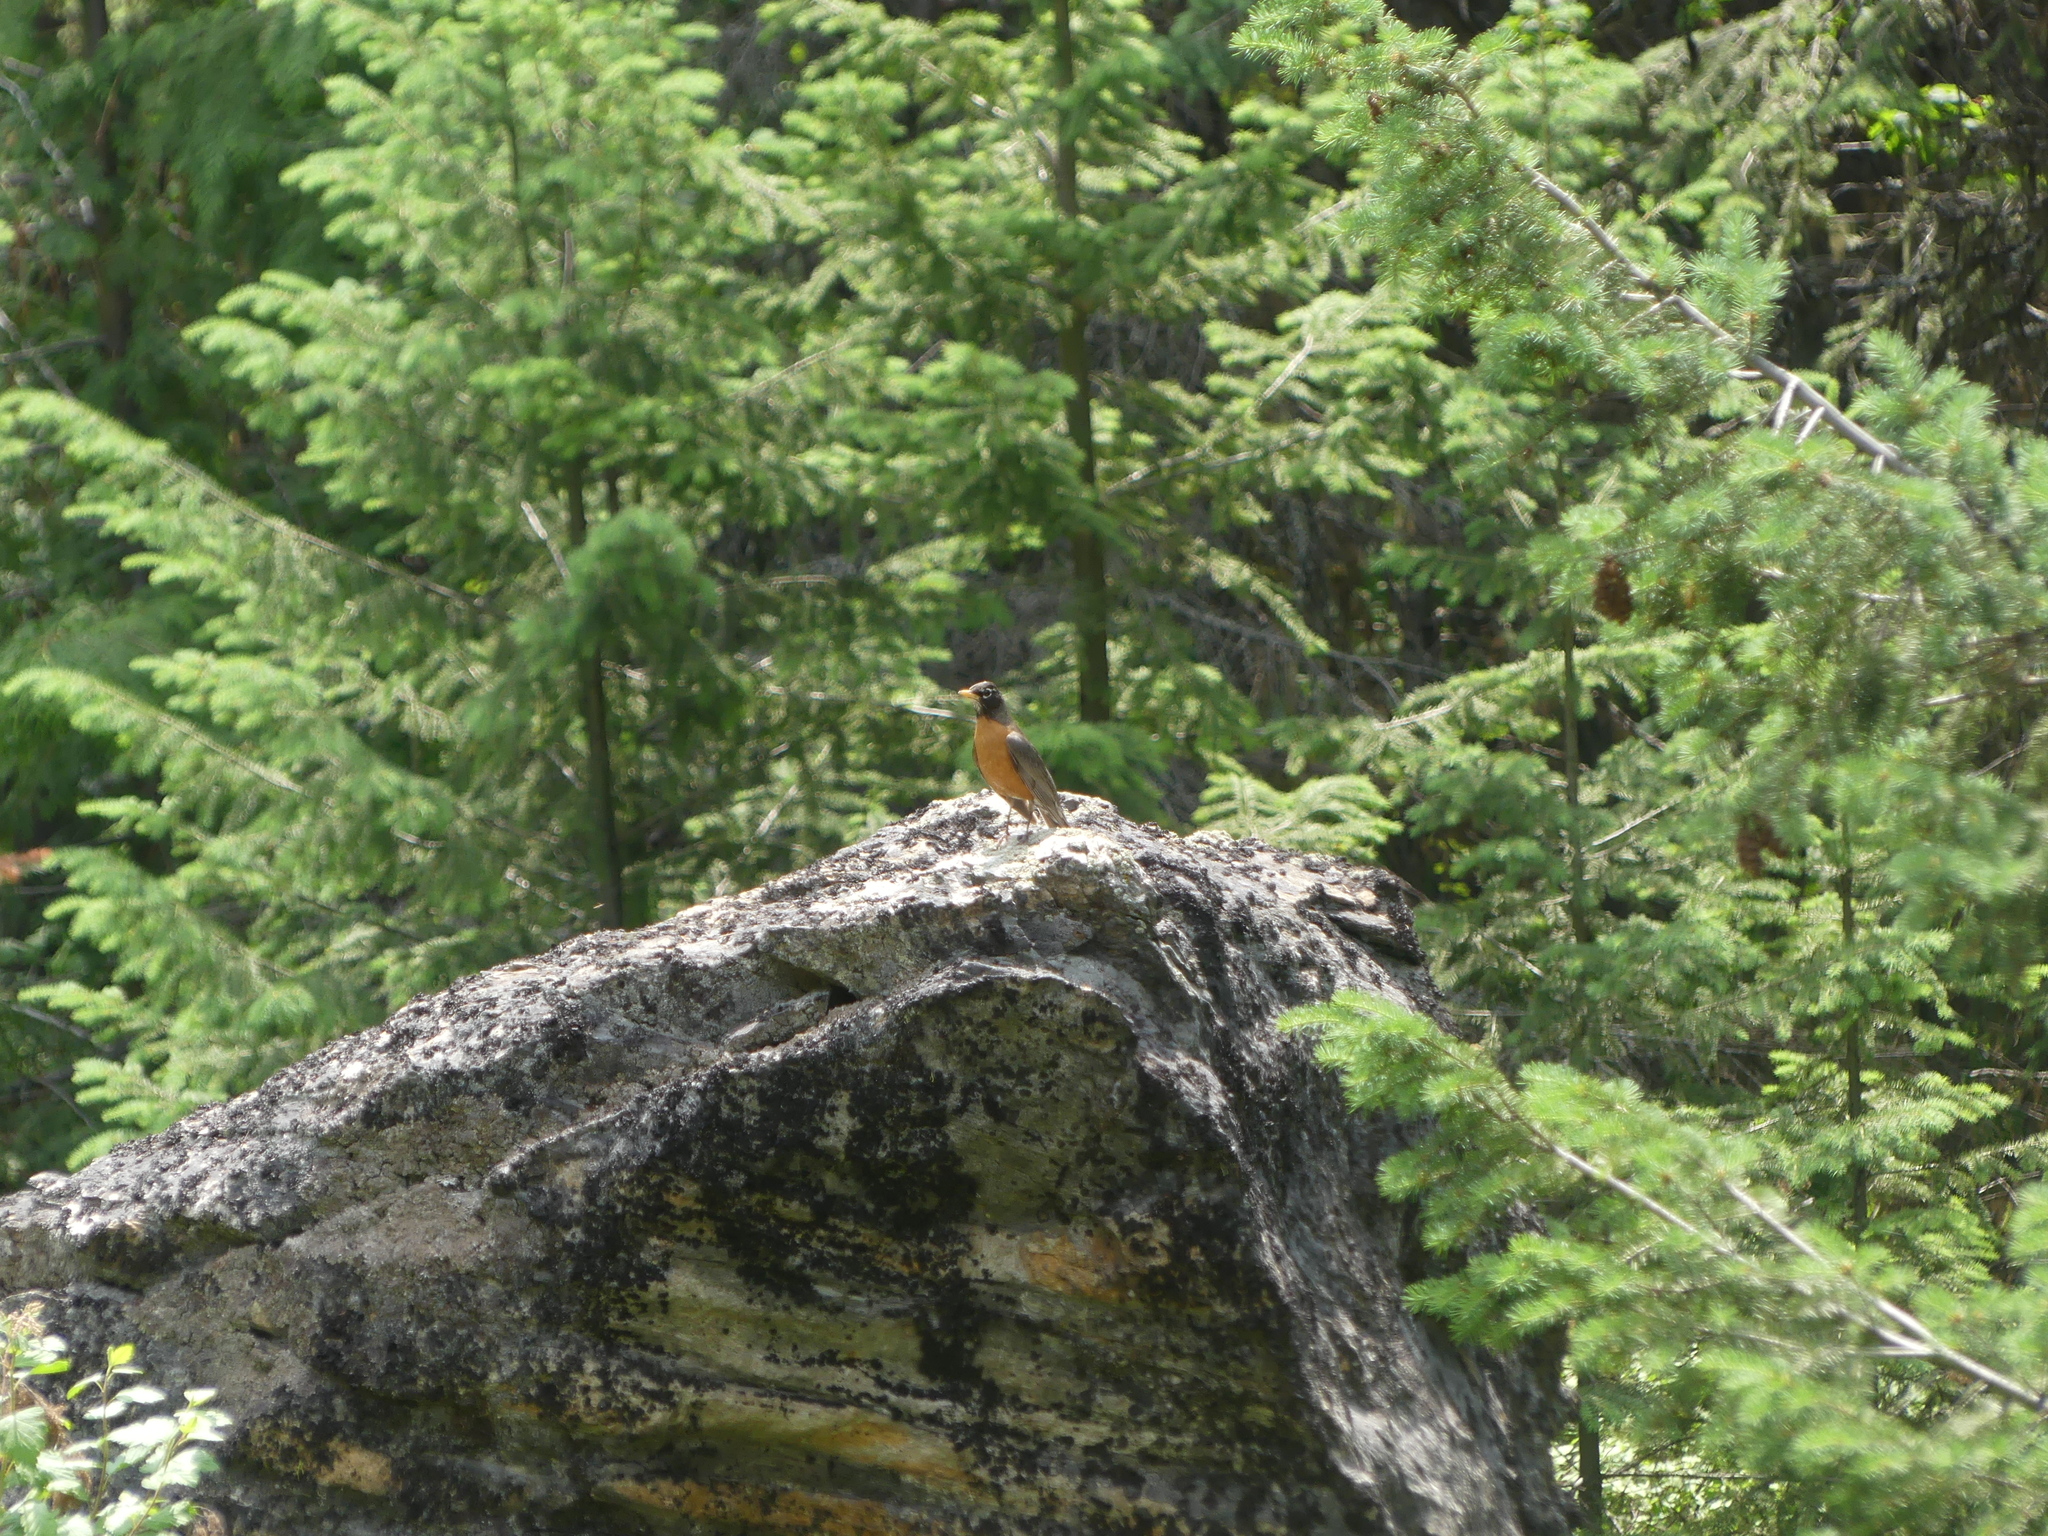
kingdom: Animalia
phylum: Chordata
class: Aves
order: Passeriformes
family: Turdidae
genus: Turdus
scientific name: Turdus migratorius
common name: American robin
